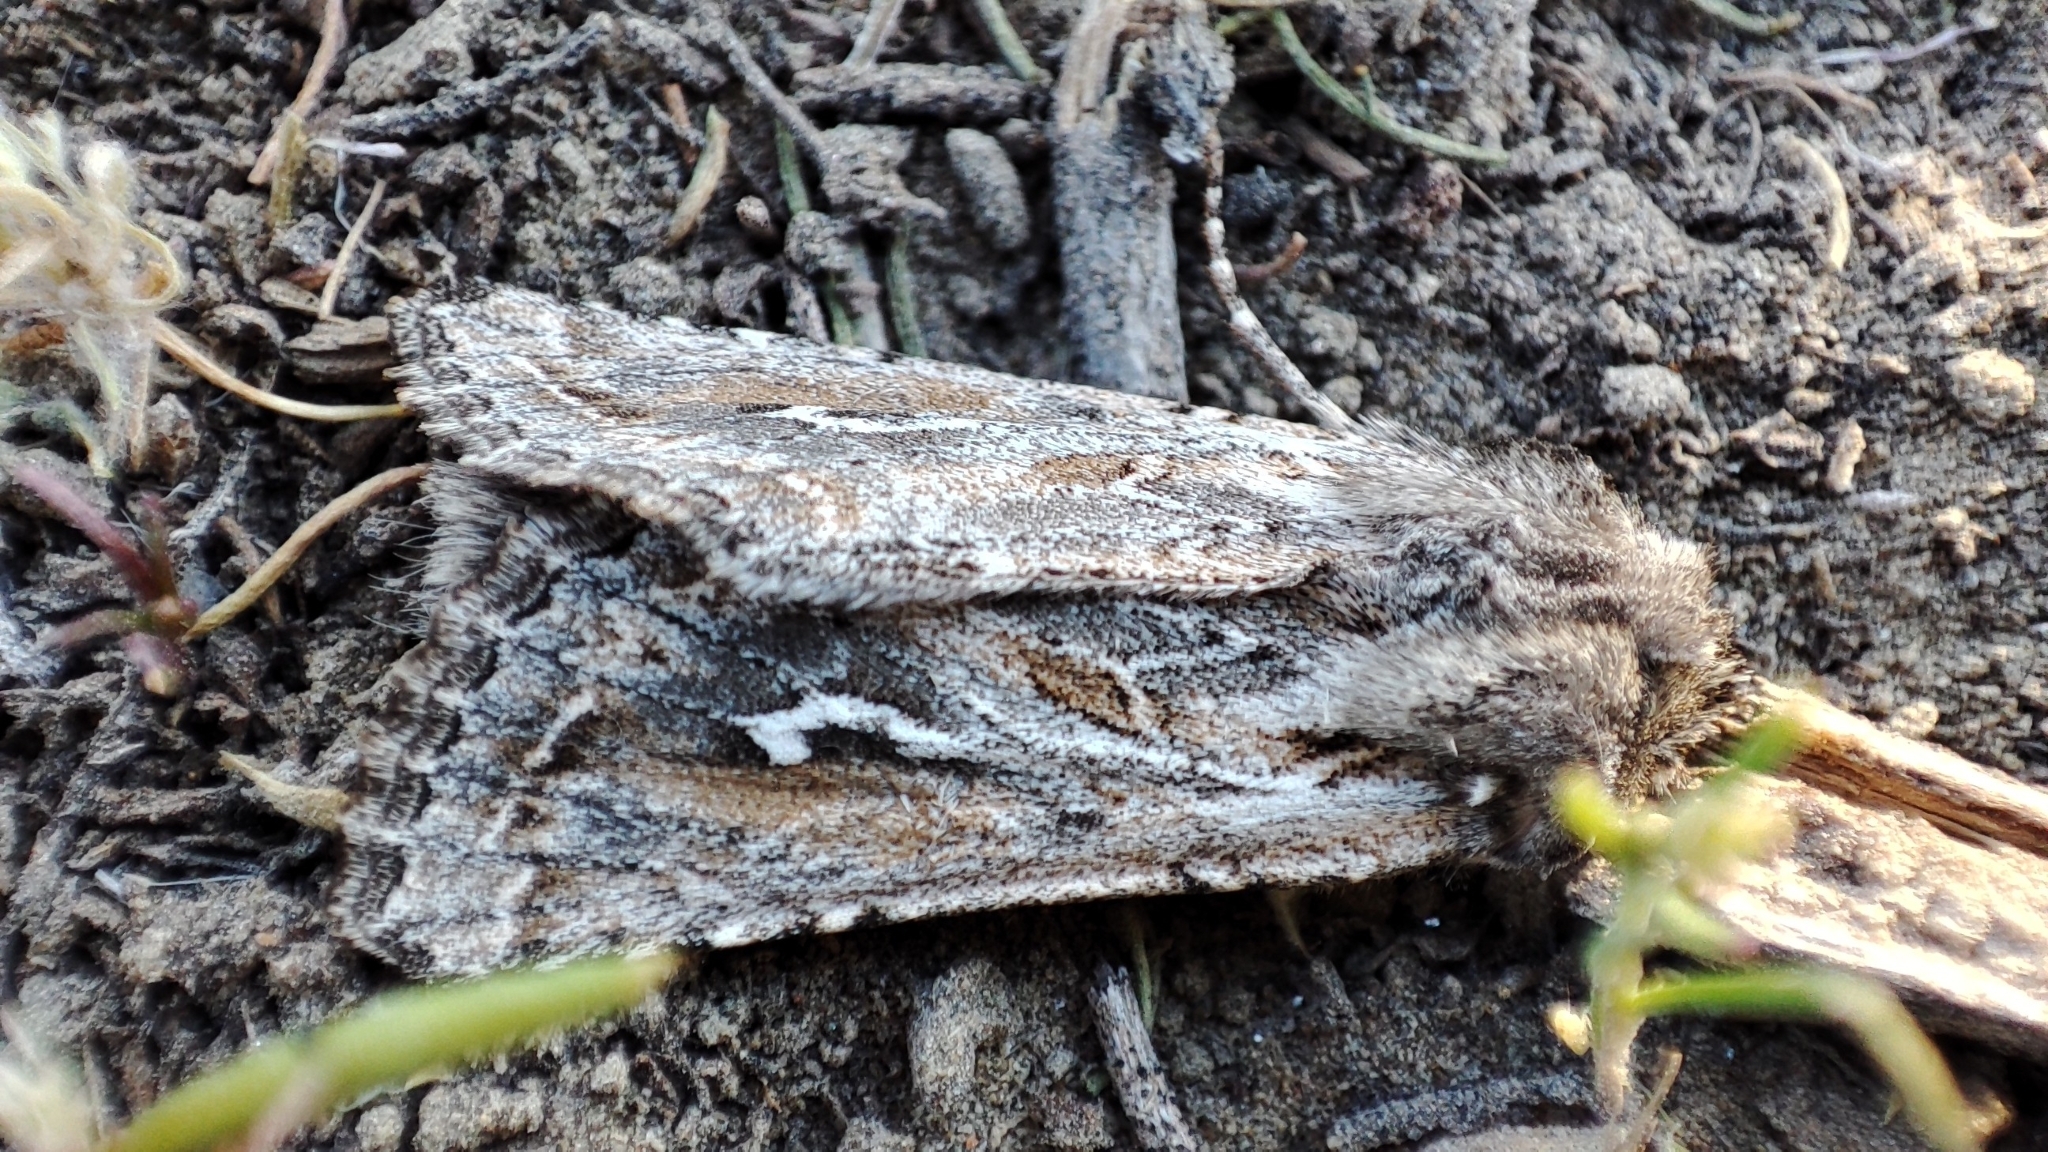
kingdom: Animalia
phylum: Arthropoda
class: Insecta
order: Lepidoptera
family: Noctuidae
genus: Ctenoceratoda
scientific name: Ctenoceratoda khorgossi
